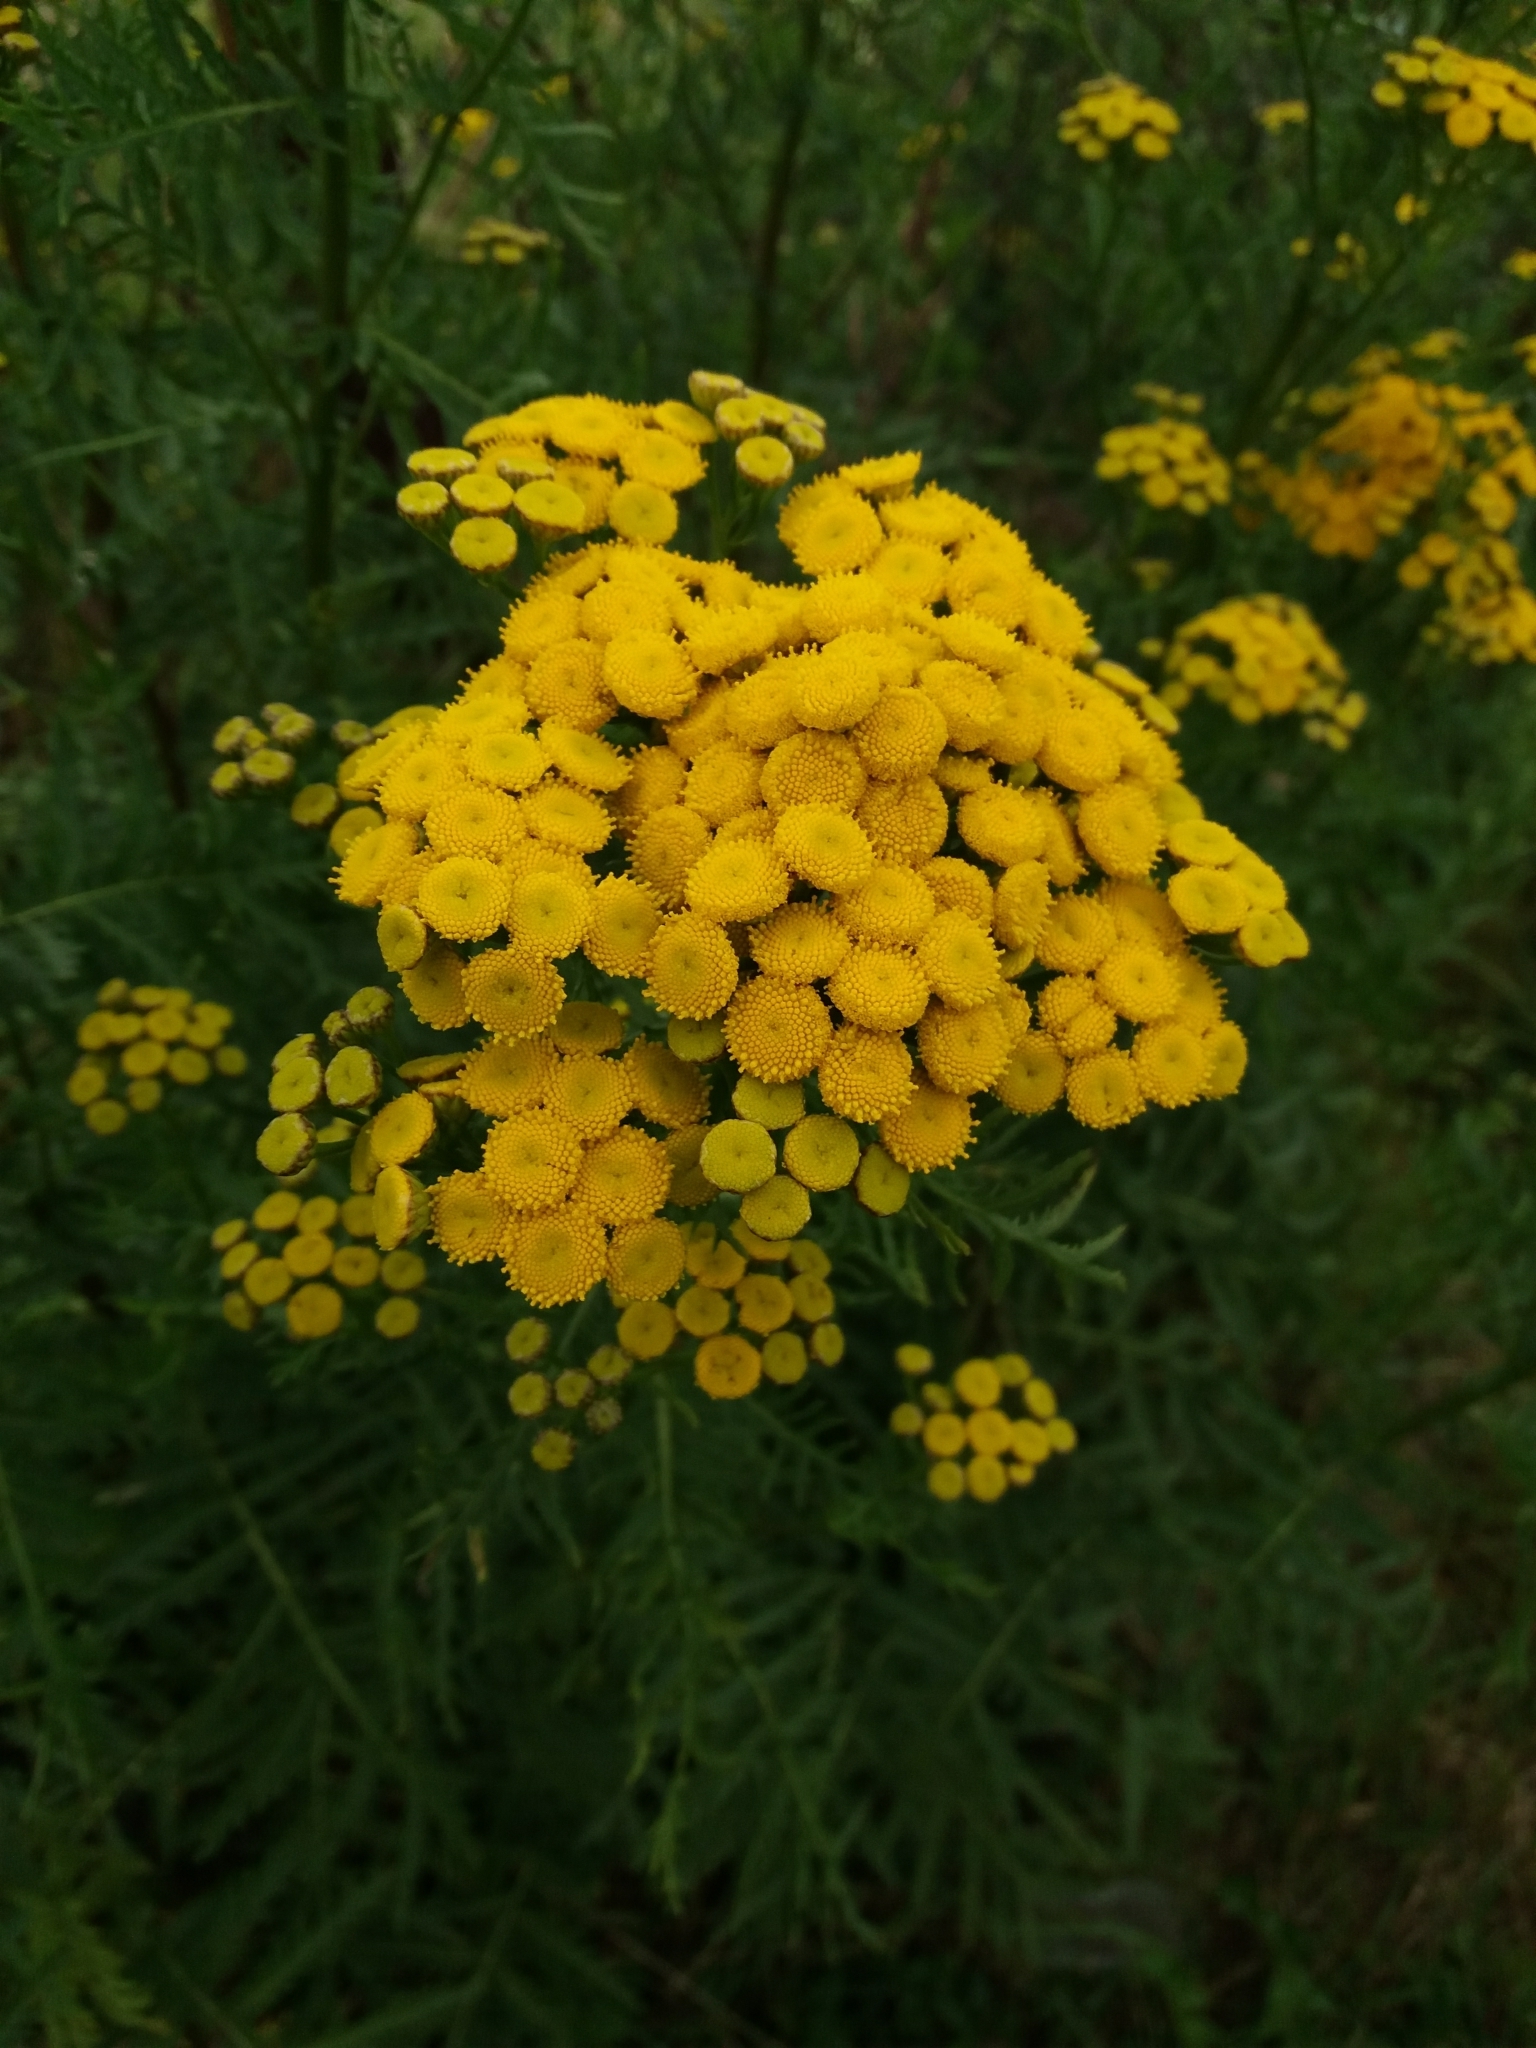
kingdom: Plantae
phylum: Tracheophyta
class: Magnoliopsida
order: Asterales
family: Asteraceae
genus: Tanacetum
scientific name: Tanacetum vulgare
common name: Common tansy
